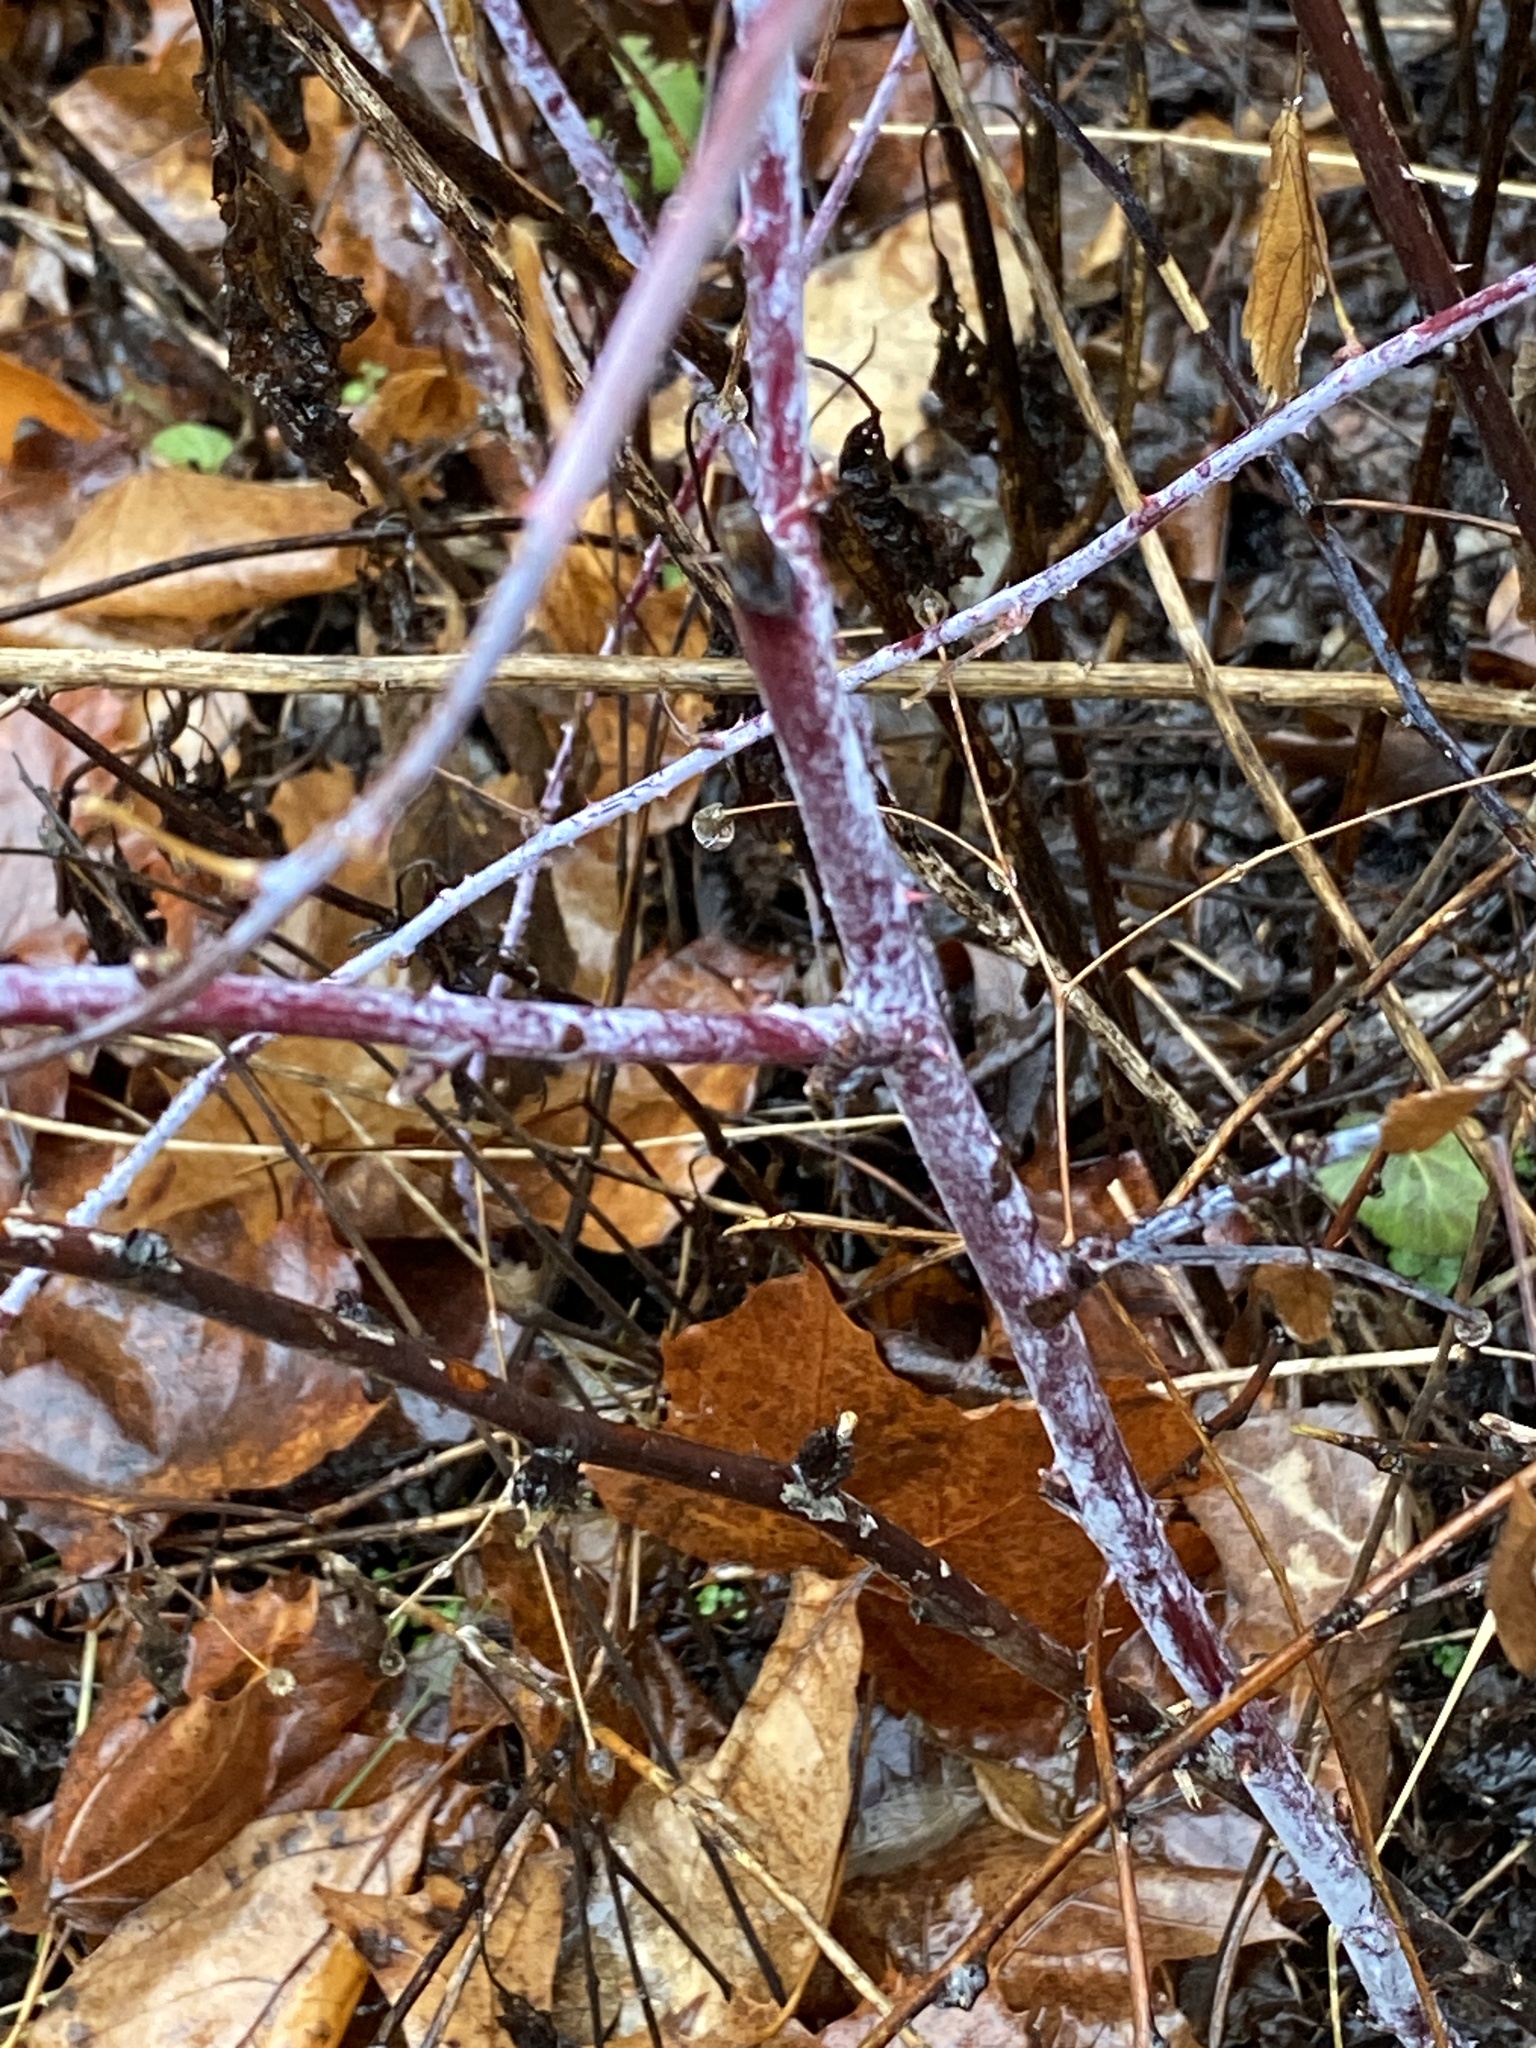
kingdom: Plantae
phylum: Tracheophyta
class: Magnoliopsida
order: Rosales
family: Rosaceae
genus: Rubus
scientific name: Rubus occidentalis
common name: Black raspberry
